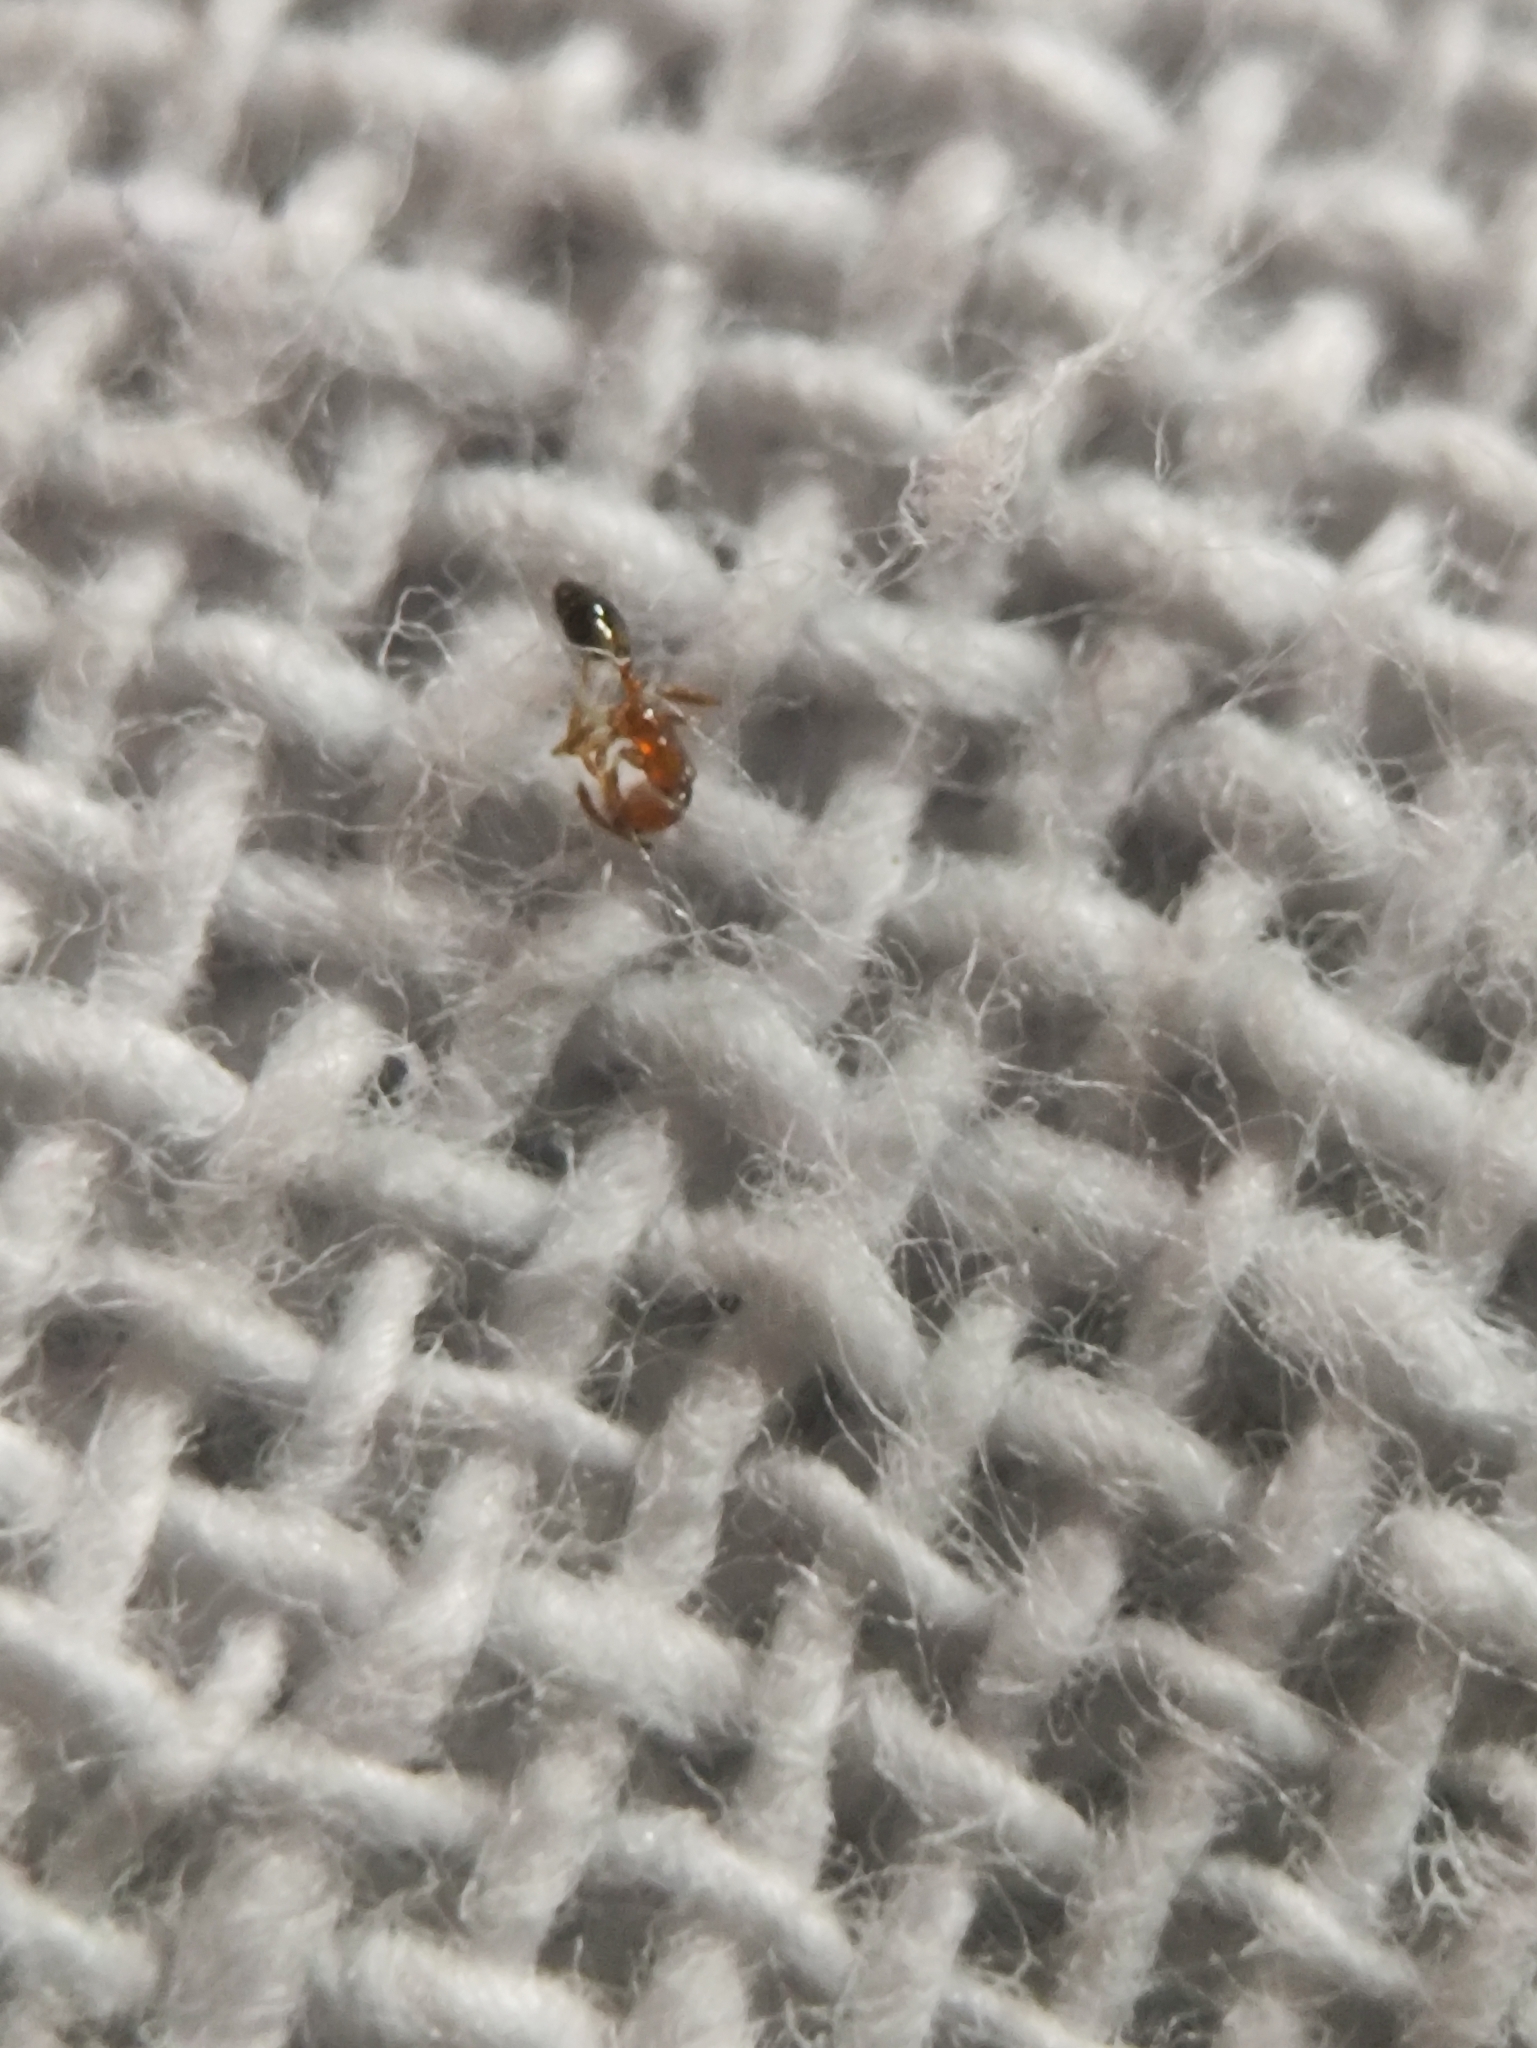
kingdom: Animalia
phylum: Arthropoda
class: Insecta
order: Hymenoptera
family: Formicidae
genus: Monomorium
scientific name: Monomorium destructor
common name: Destructive trailing ant
